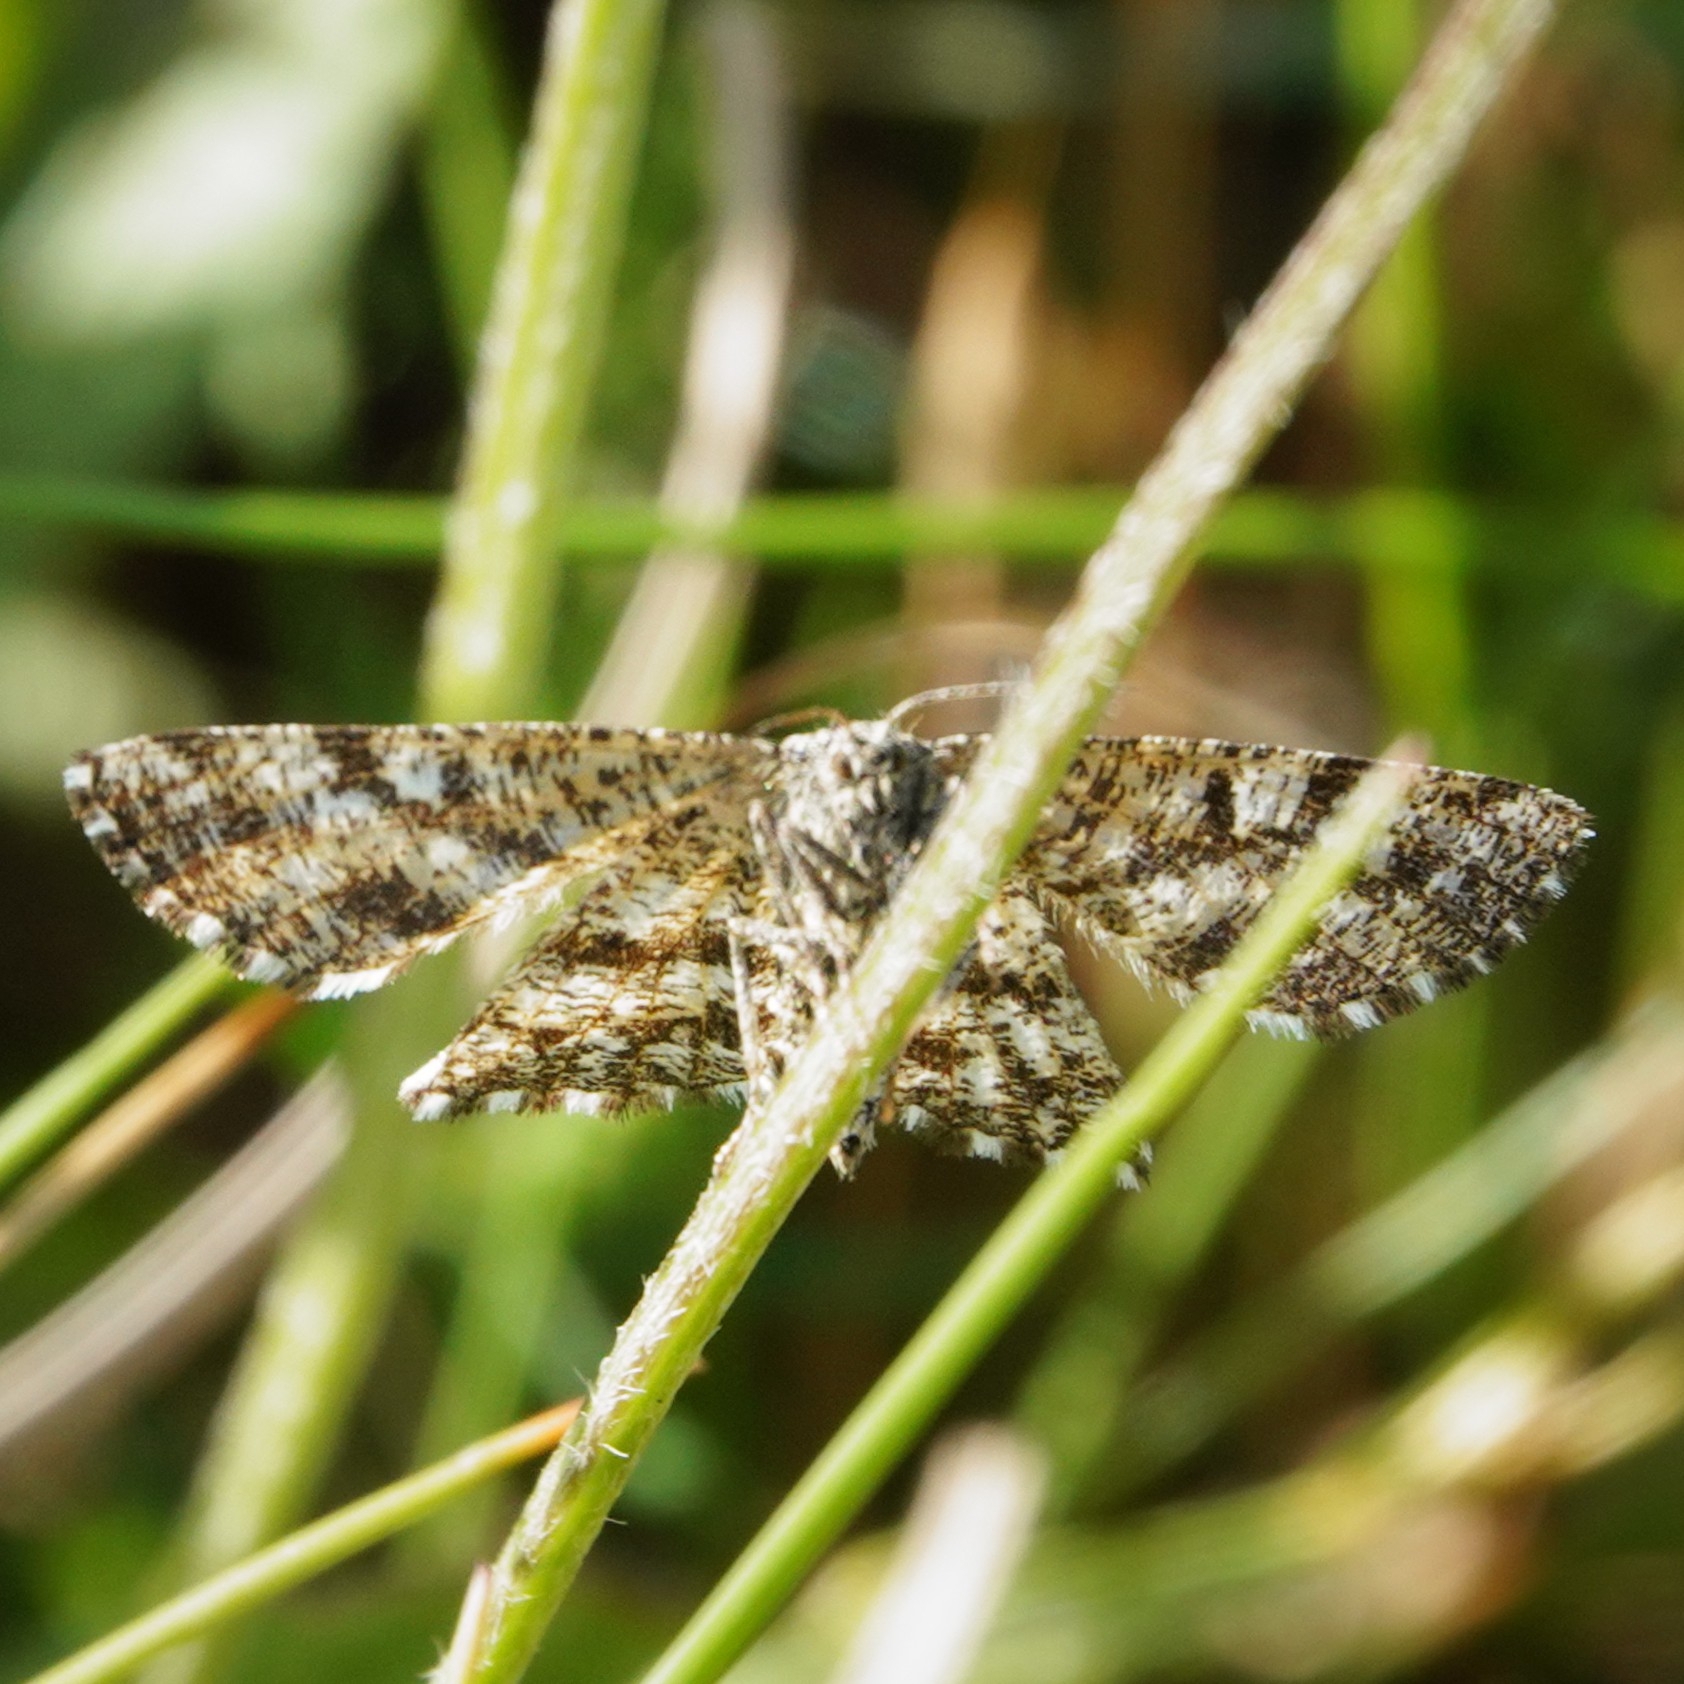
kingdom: Animalia
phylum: Arthropoda
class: Insecta
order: Lepidoptera
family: Geometridae
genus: Ematurga
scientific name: Ematurga atomaria
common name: Common heath
